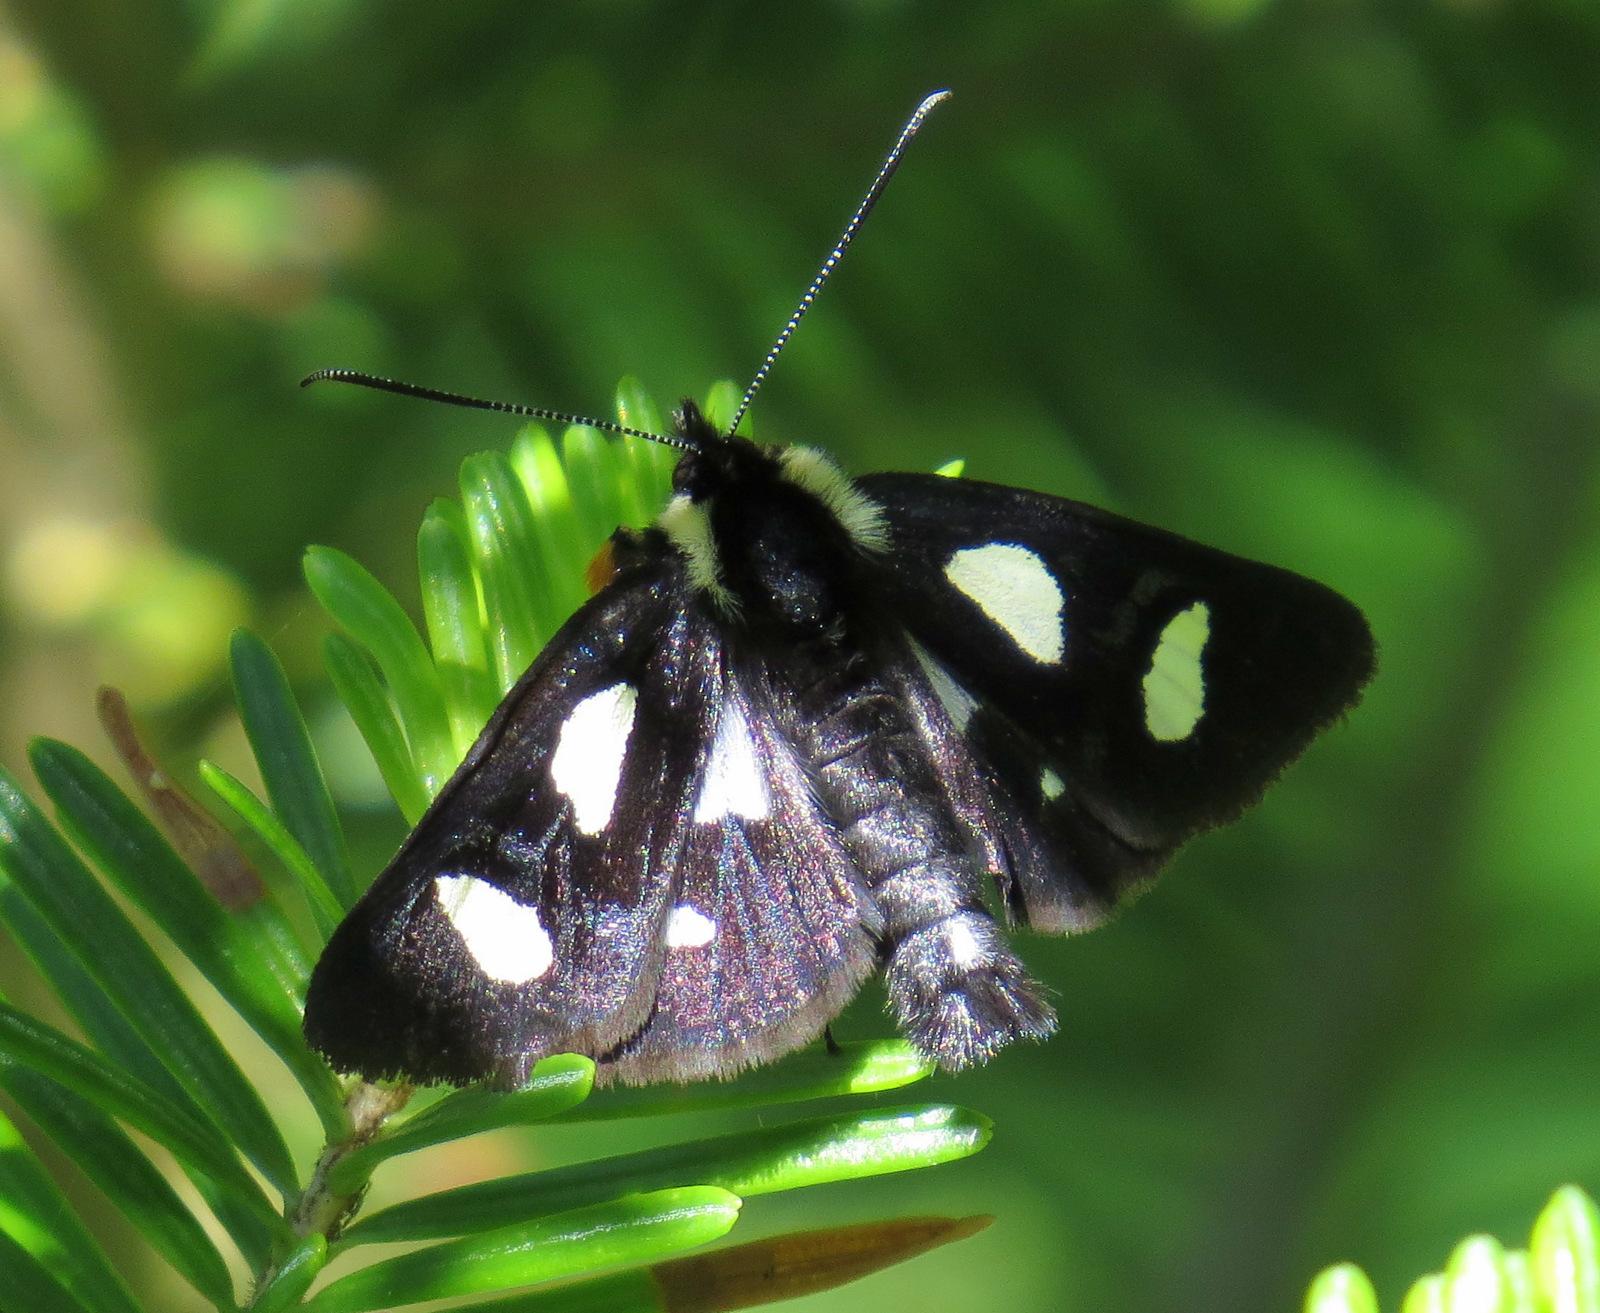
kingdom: Animalia
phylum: Arthropoda
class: Insecta
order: Lepidoptera
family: Noctuidae
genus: Alypia
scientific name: Alypia octomaculata
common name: Eight-spotted forester
